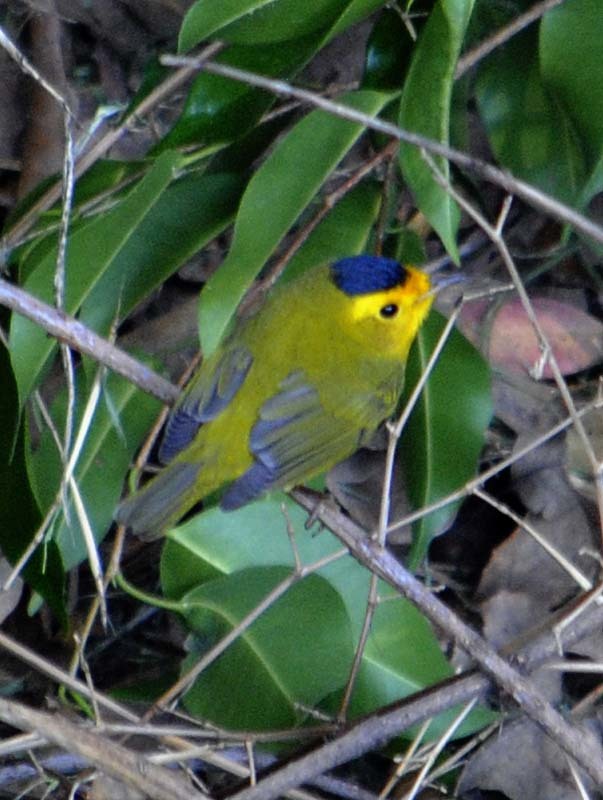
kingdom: Animalia
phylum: Chordata
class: Aves
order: Passeriformes
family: Parulidae
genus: Cardellina
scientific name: Cardellina pusilla
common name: Wilson's warbler
